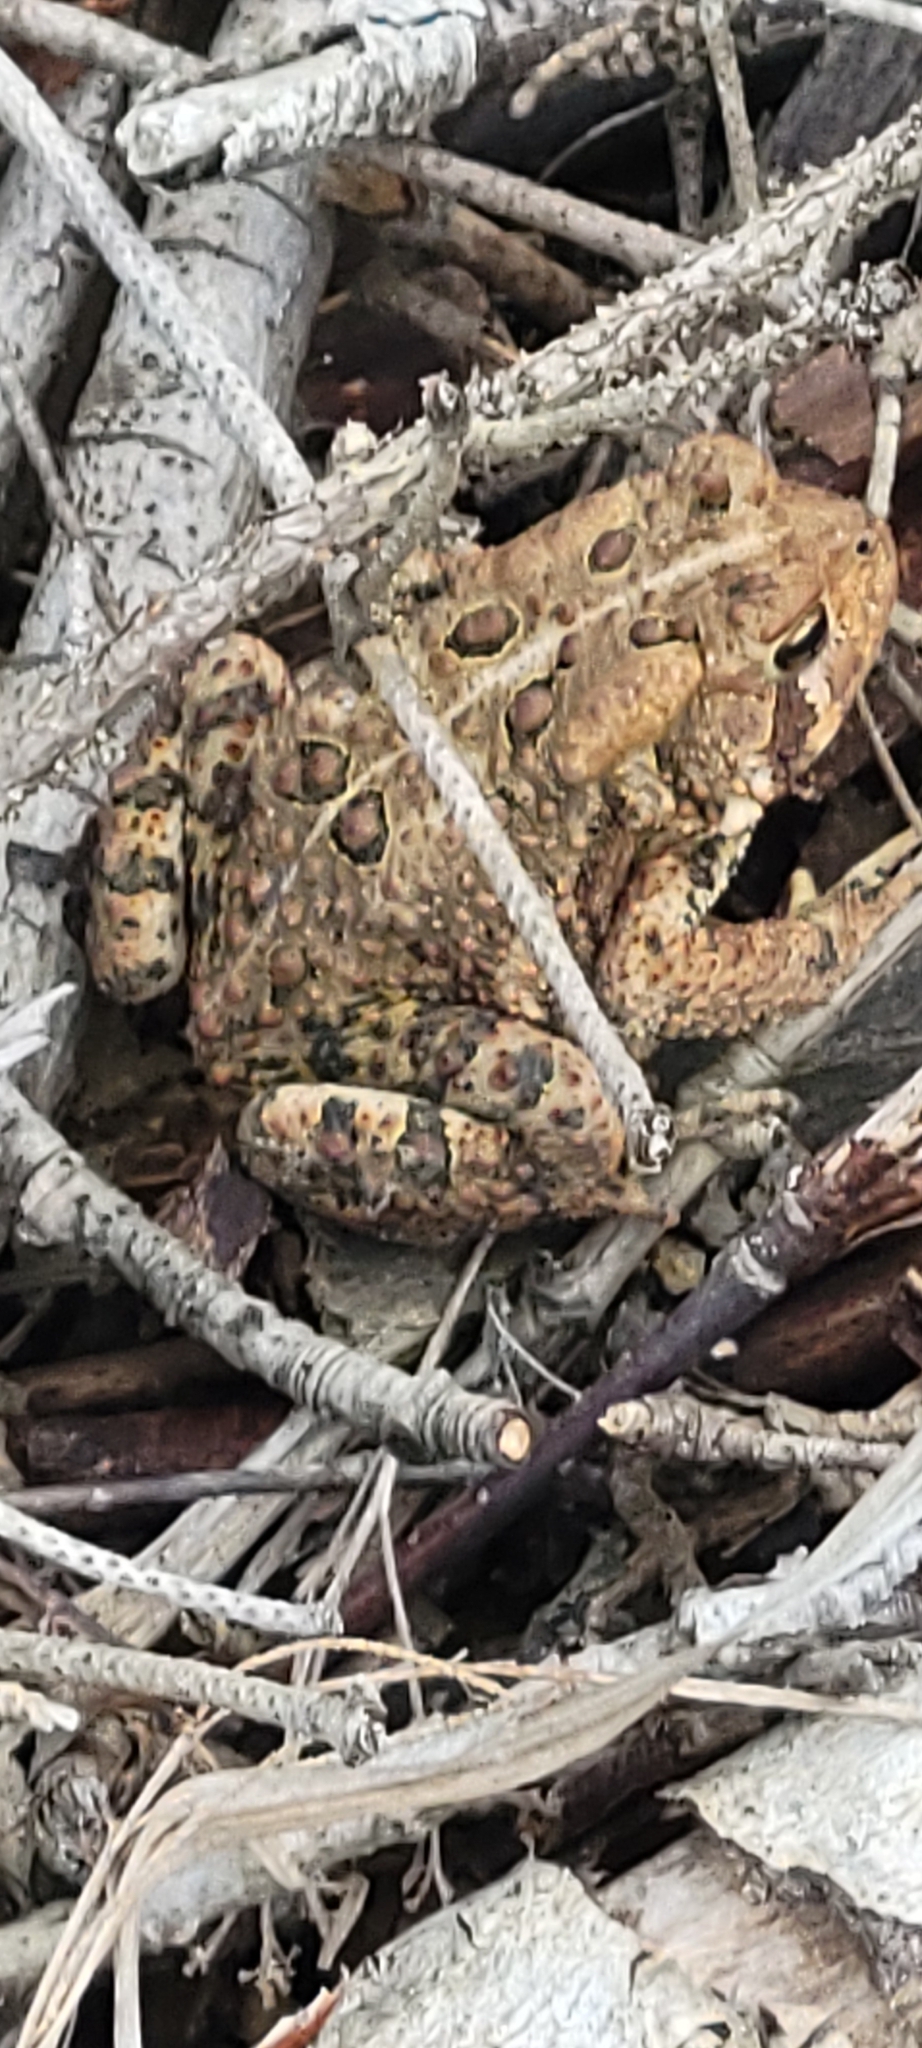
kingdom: Animalia
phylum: Chordata
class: Amphibia
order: Anura
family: Bufonidae
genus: Anaxyrus
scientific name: Anaxyrus americanus
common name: American toad
